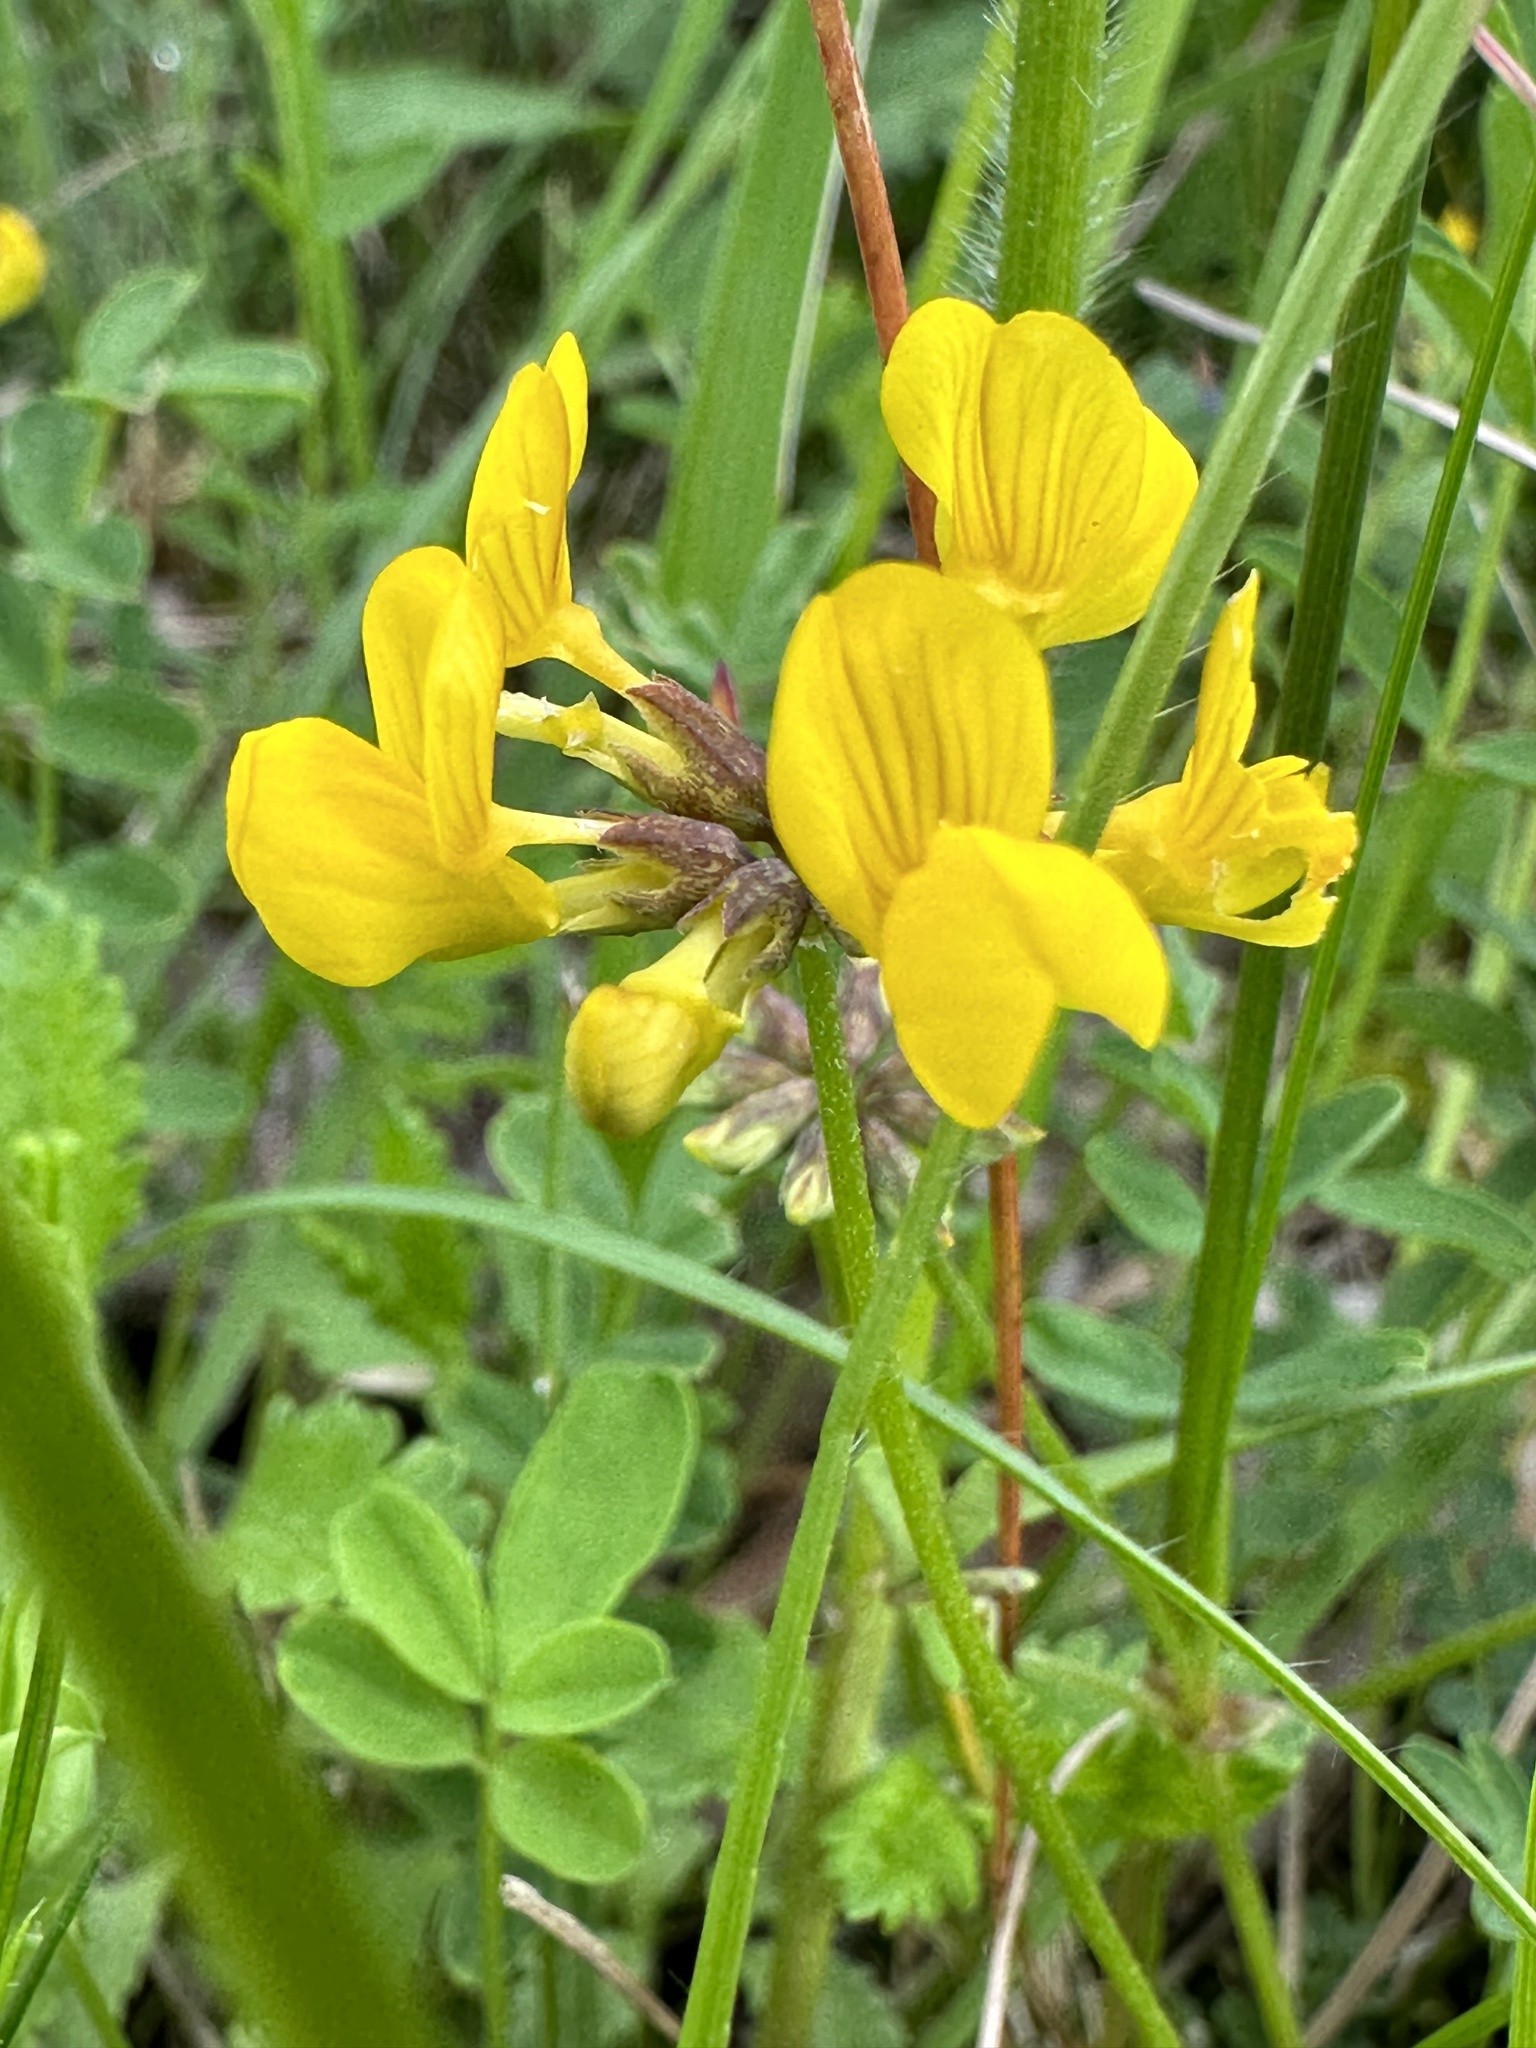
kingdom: Plantae
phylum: Tracheophyta
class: Magnoliopsida
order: Fabales
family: Fabaceae
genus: Hippocrepis
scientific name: Hippocrepis comosa
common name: Horseshoe vetch
